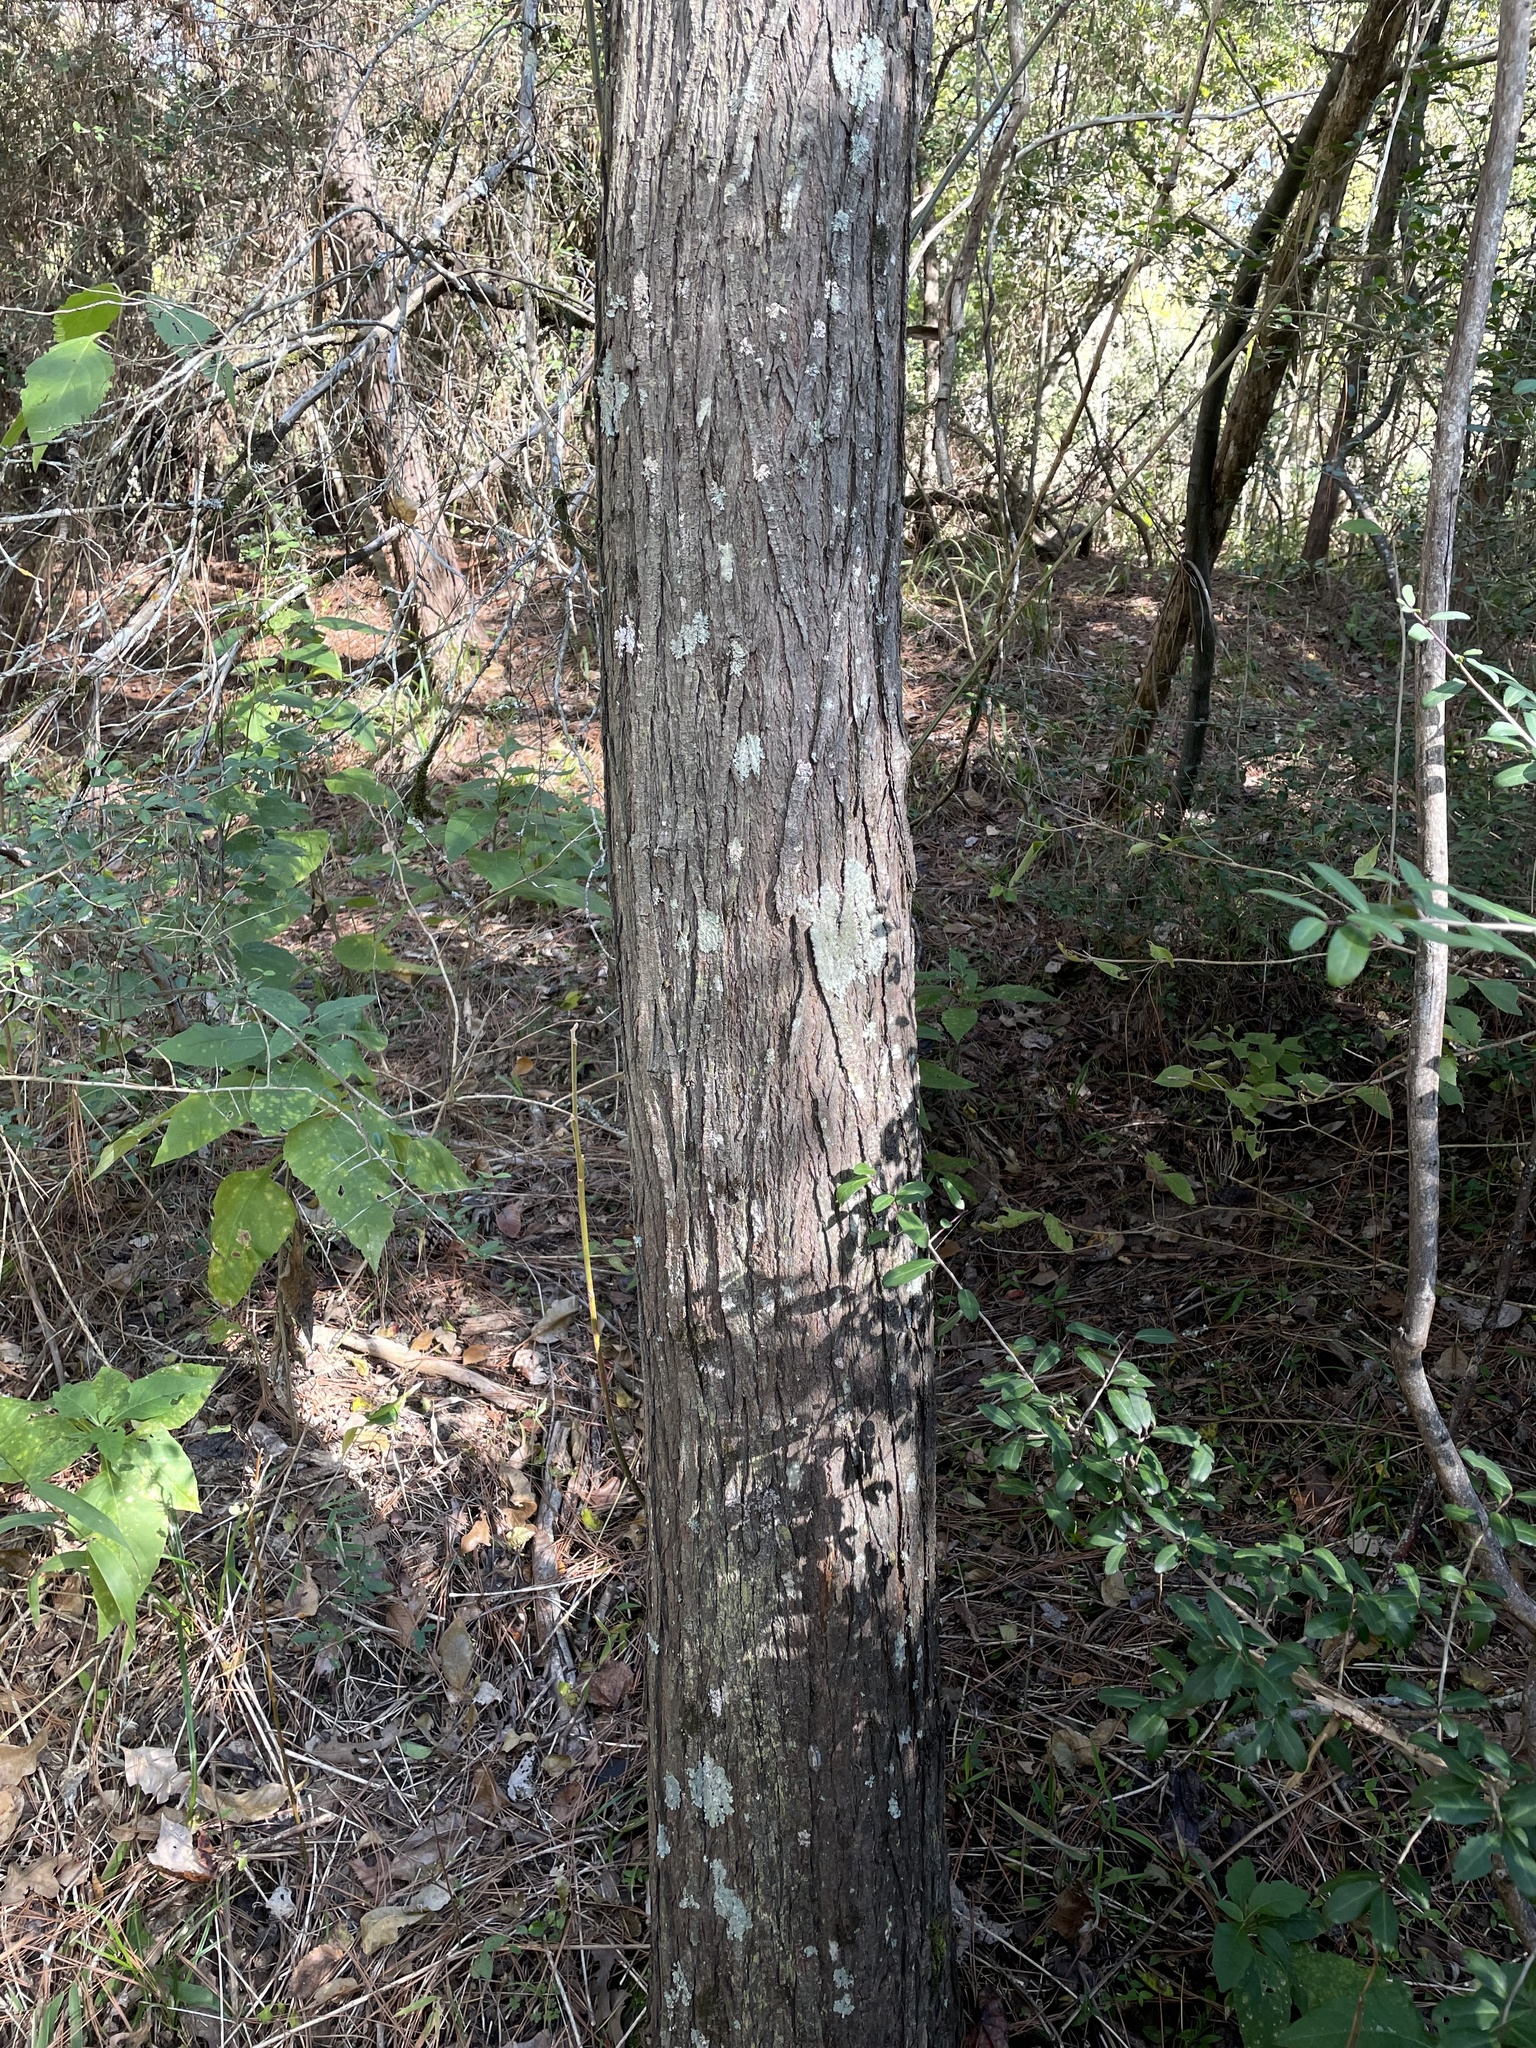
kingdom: Plantae
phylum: Tracheophyta
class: Magnoliopsida
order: Sapindales
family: Meliaceae
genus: Melia
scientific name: Melia azedarach
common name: Chinaberrytree
